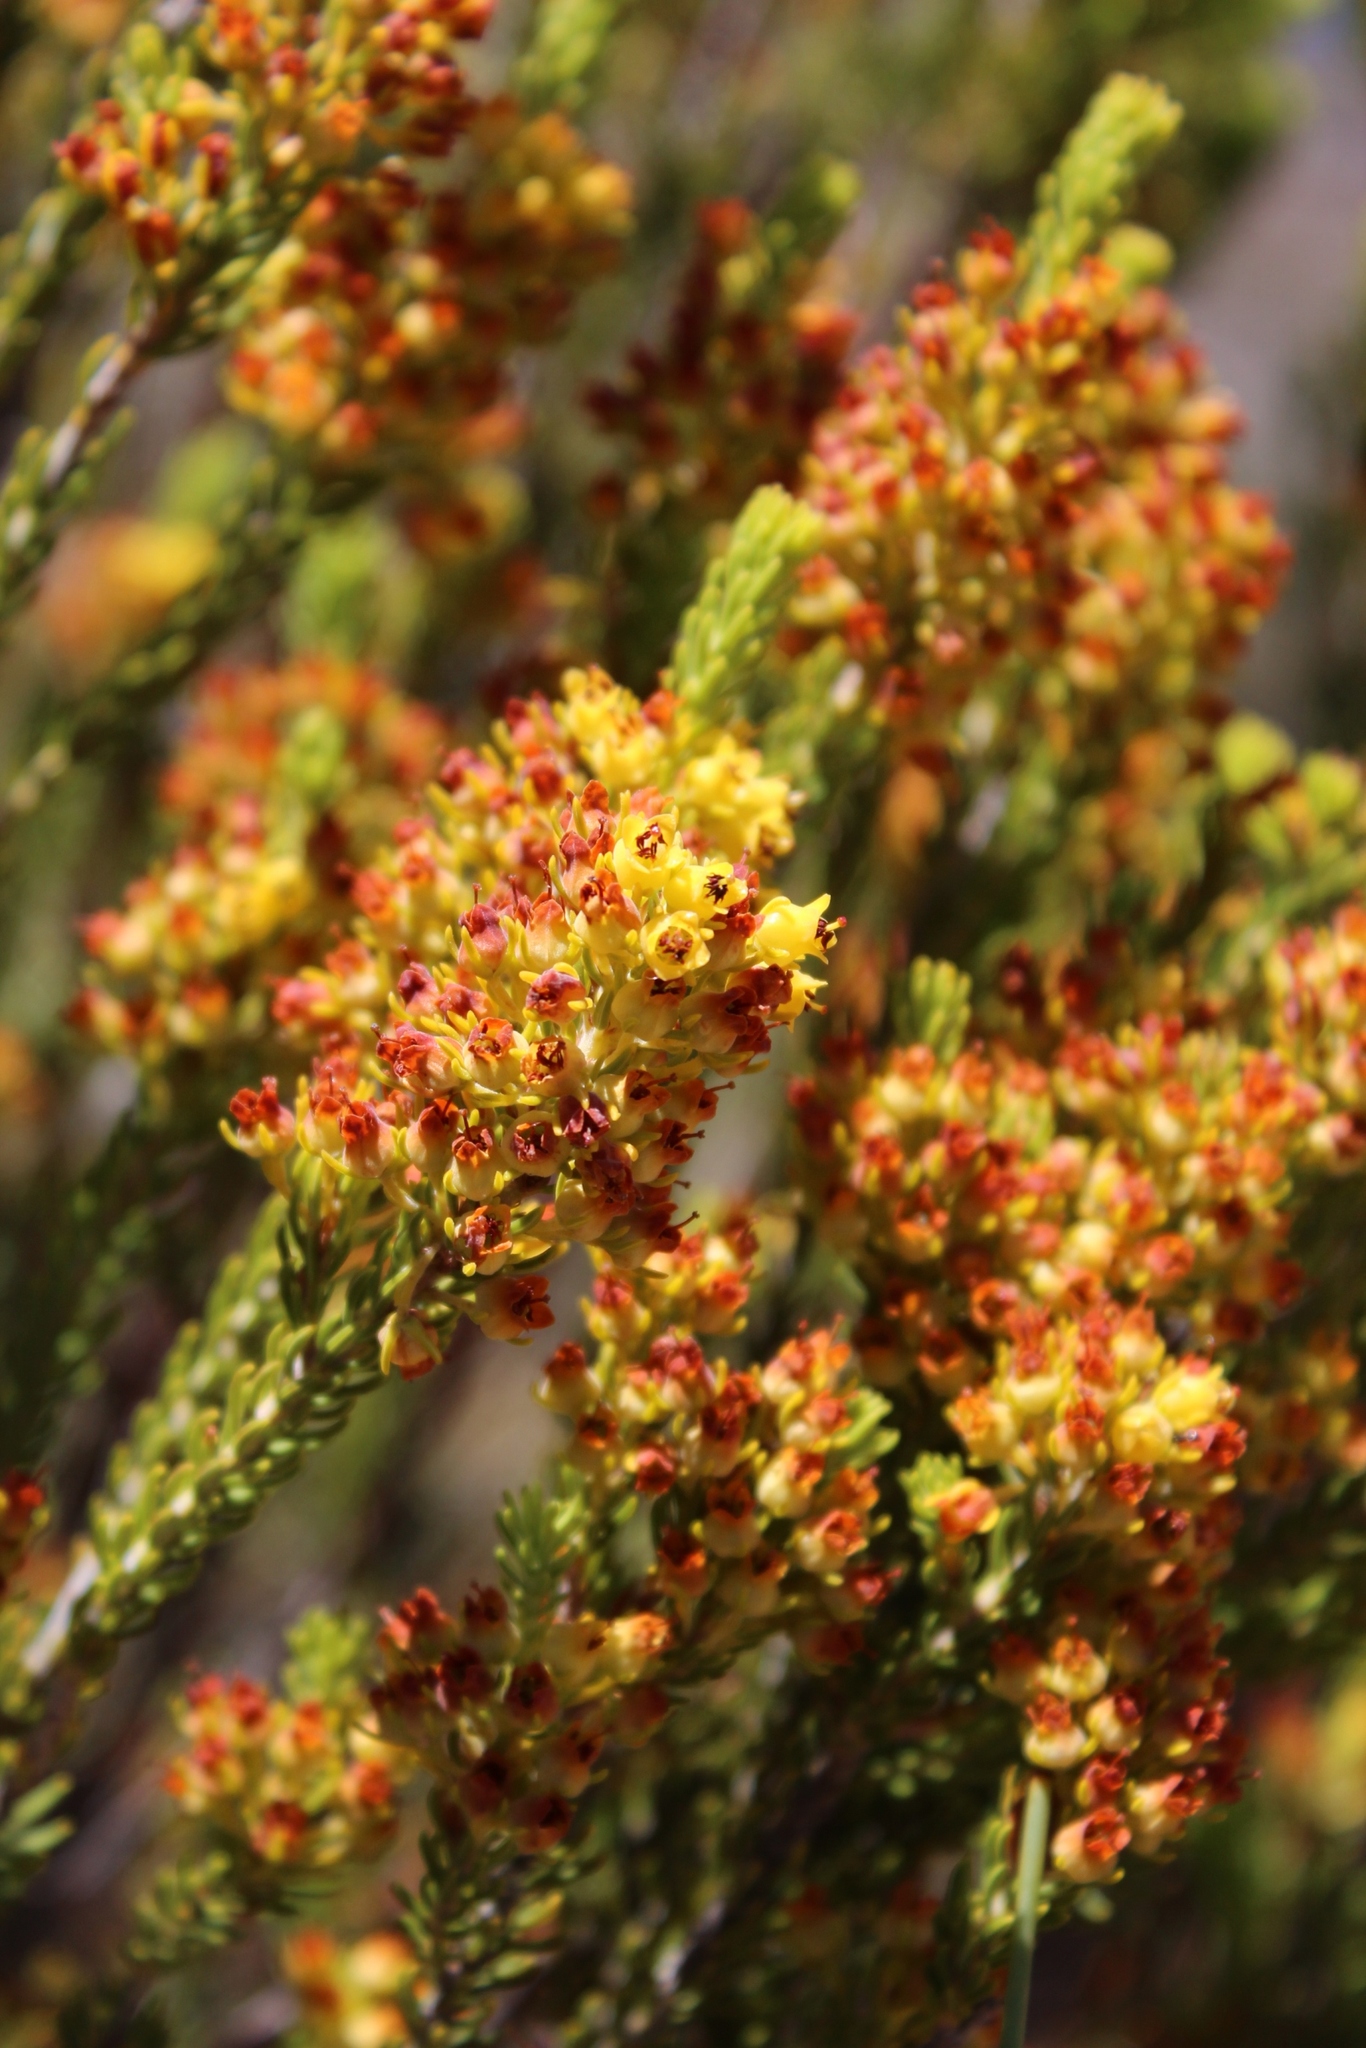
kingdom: Plantae
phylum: Tracheophyta
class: Magnoliopsida
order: Ericales
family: Ericaceae
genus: Erica
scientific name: Erica parilis
